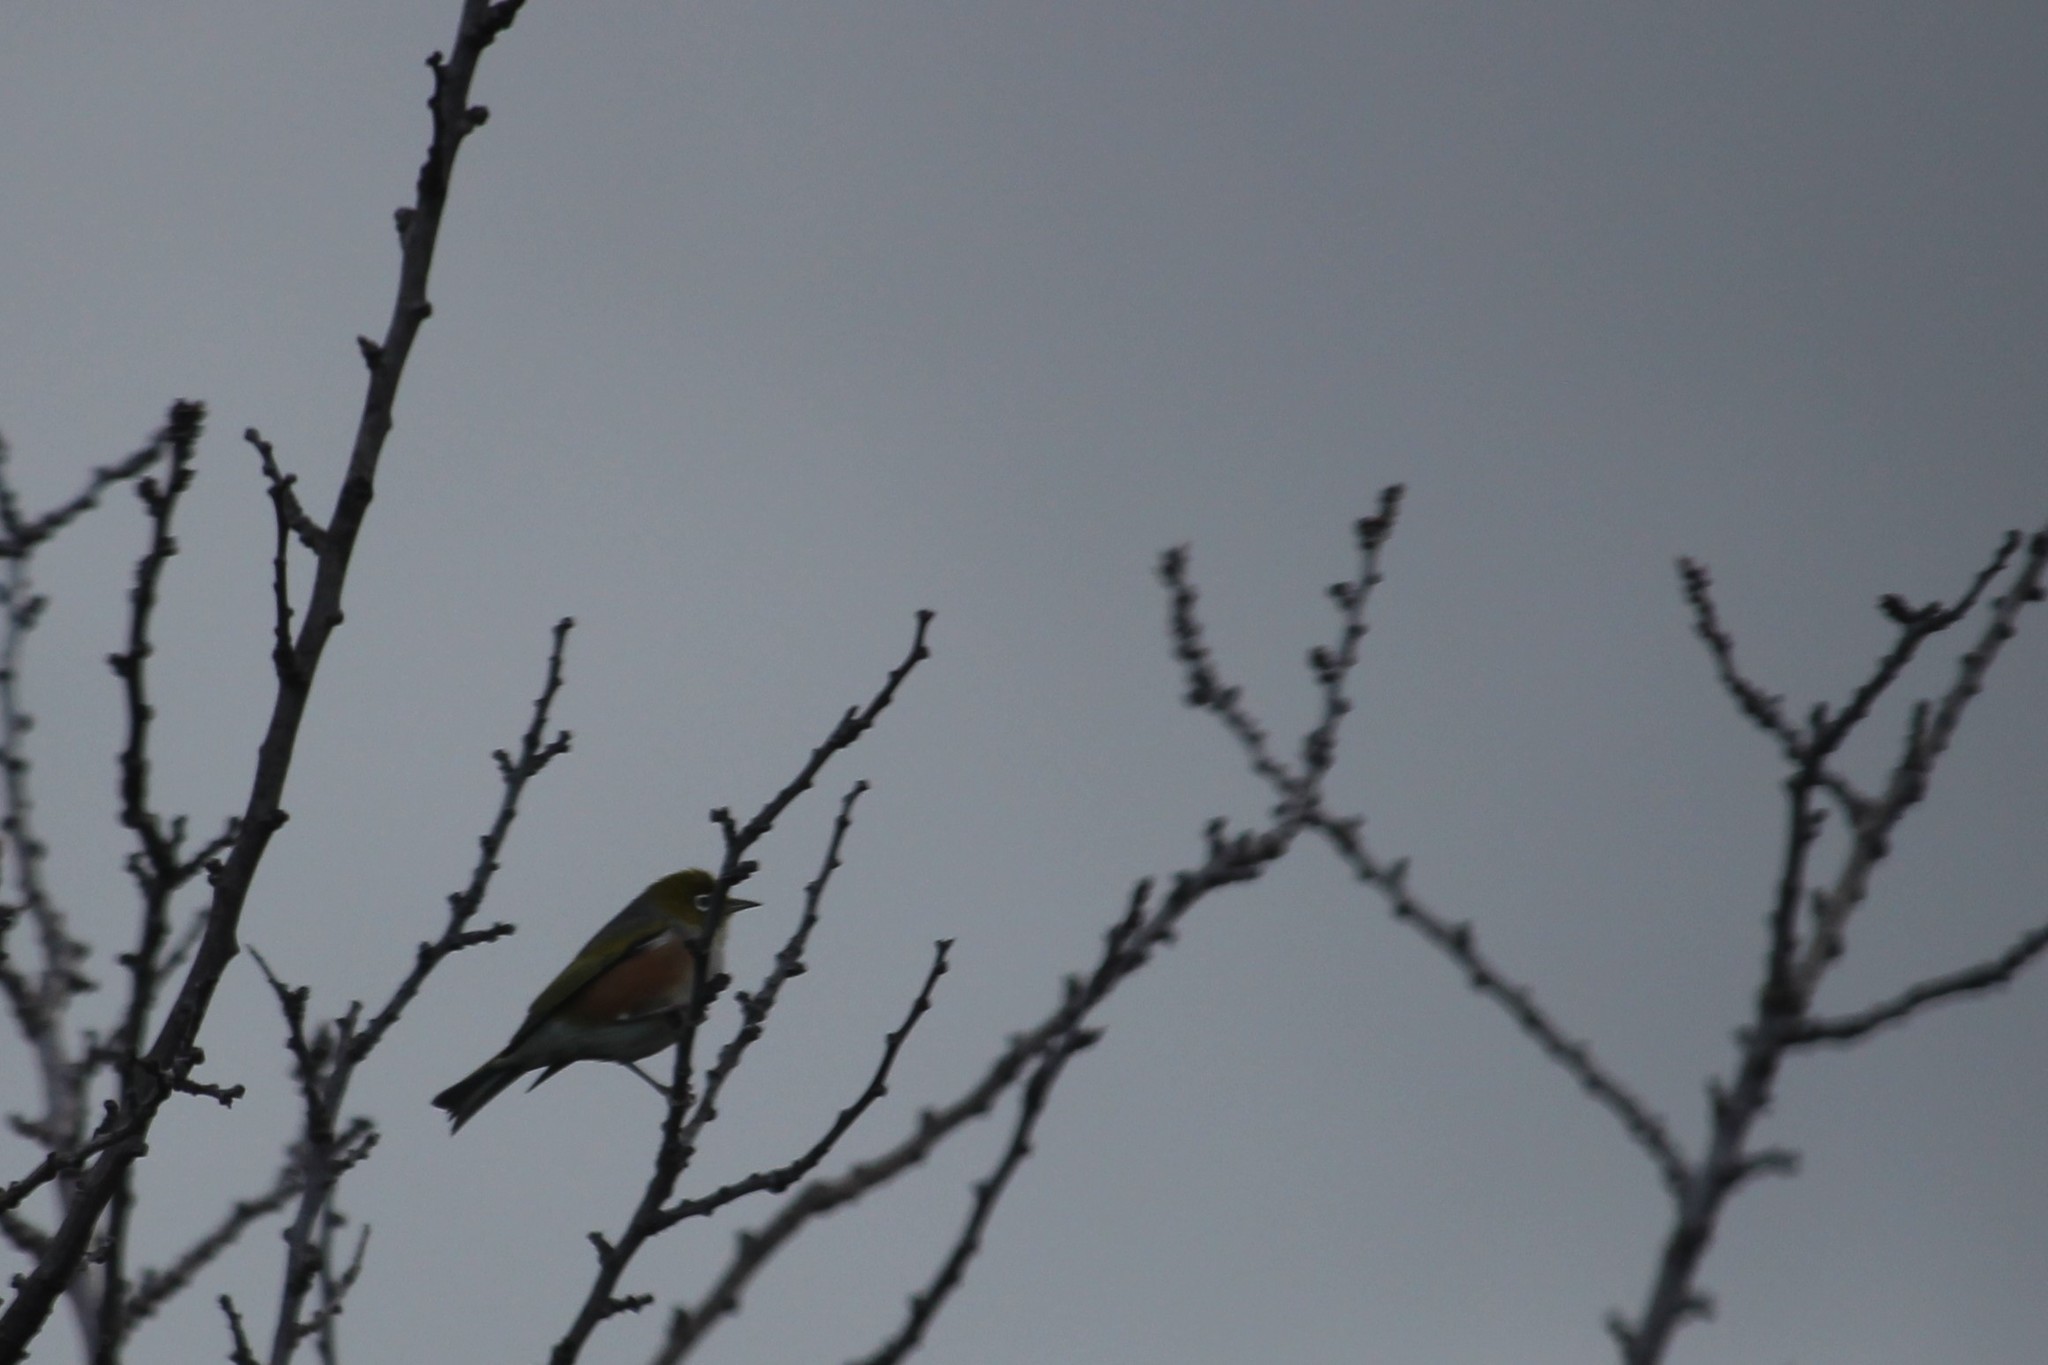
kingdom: Animalia
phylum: Chordata
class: Aves
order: Passeriformes
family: Zosteropidae
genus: Zosterops
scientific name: Zosterops lateralis
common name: Silvereye
